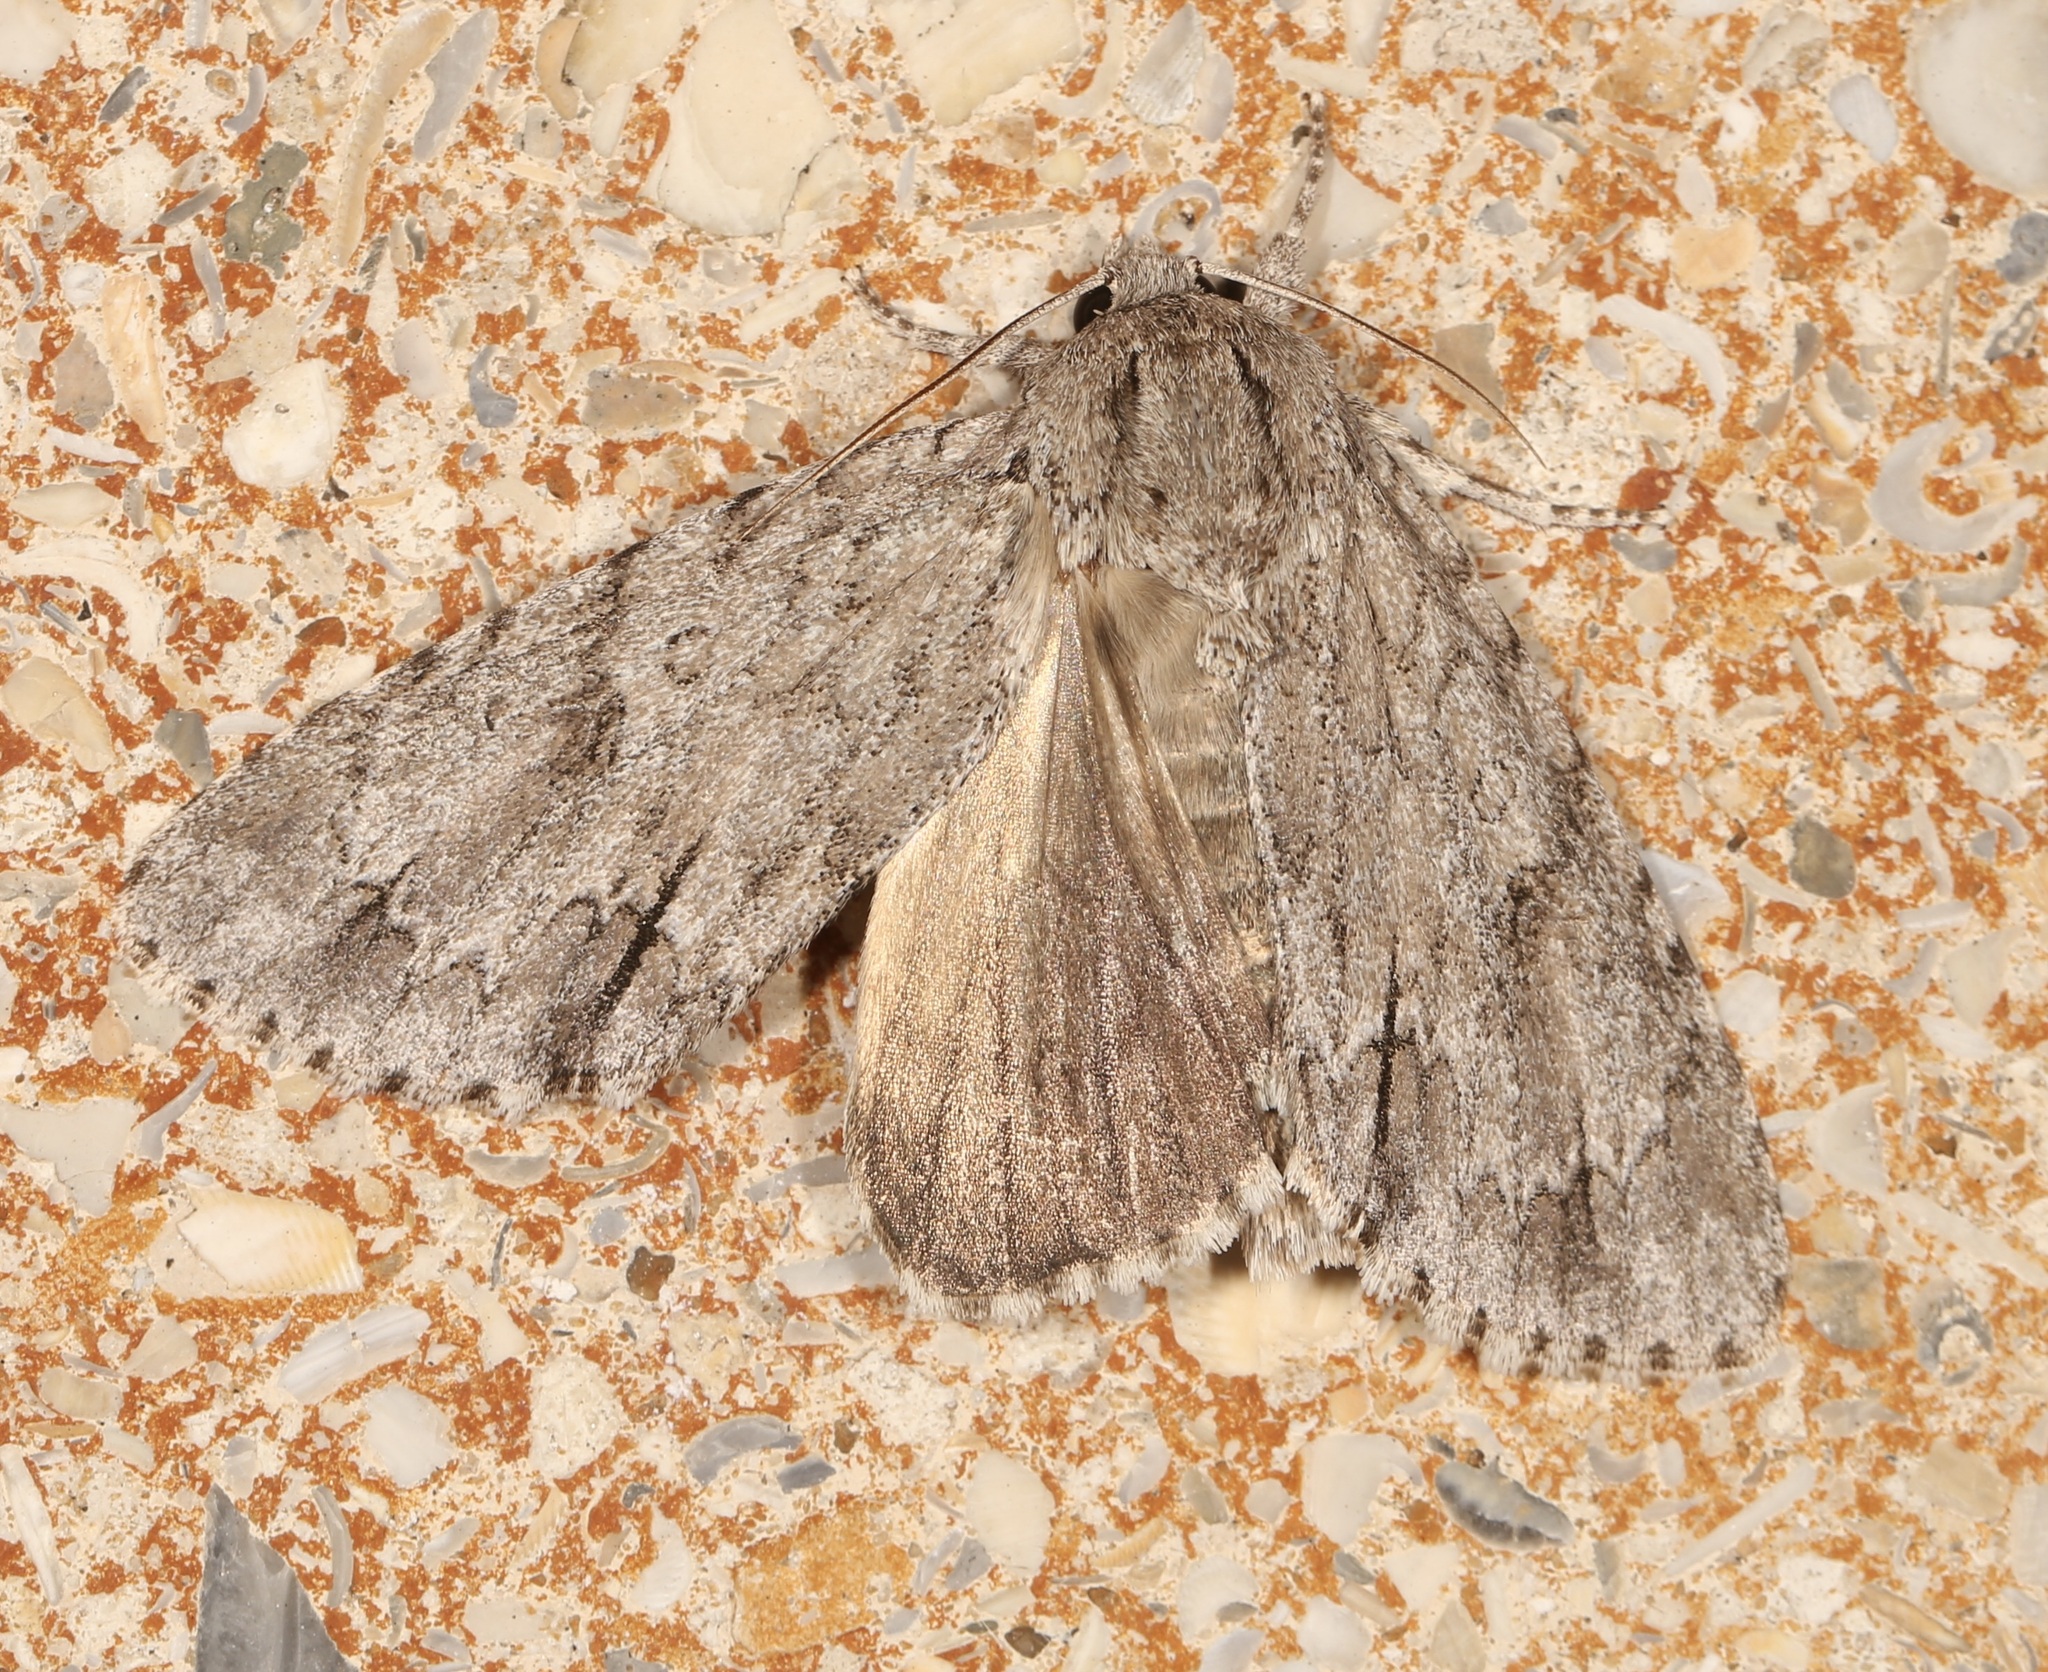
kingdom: Animalia
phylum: Arthropoda
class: Insecta
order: Lepidoptera
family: Noctuidae
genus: Acronicta
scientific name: Acronicta americana
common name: American dagger
